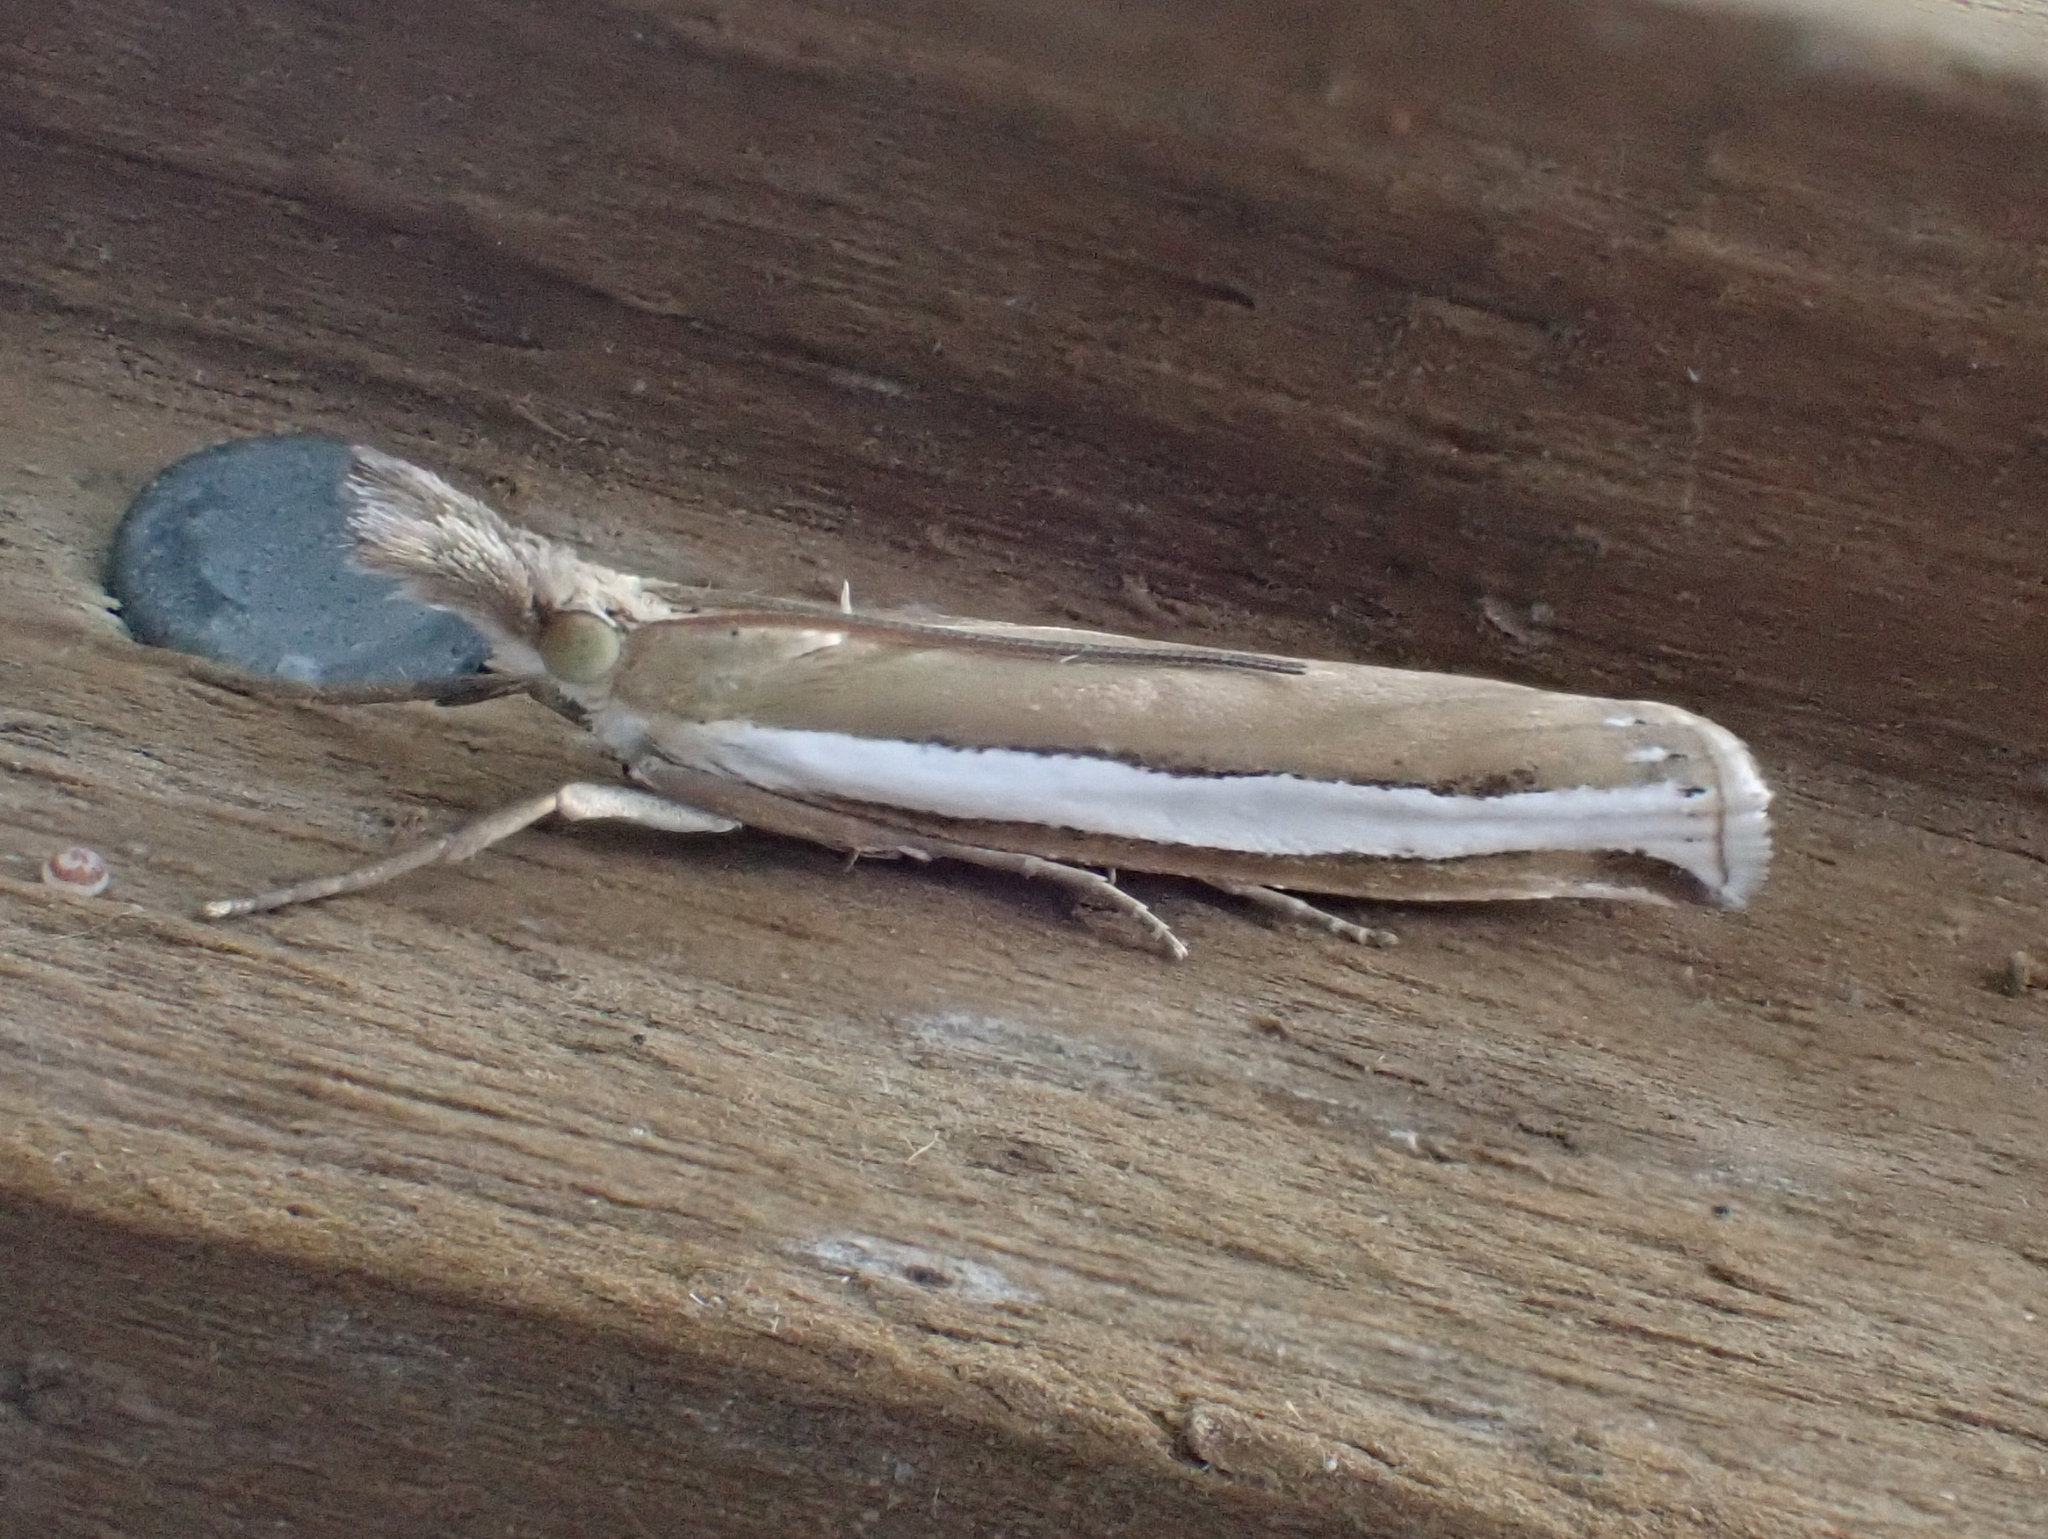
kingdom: Animalia
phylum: Arthropoda
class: Insecta
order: Lepidoptera
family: Crambidae
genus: Crambus
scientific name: Crambus unistriatellus
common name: Wide-stripe grass-veneer moth
